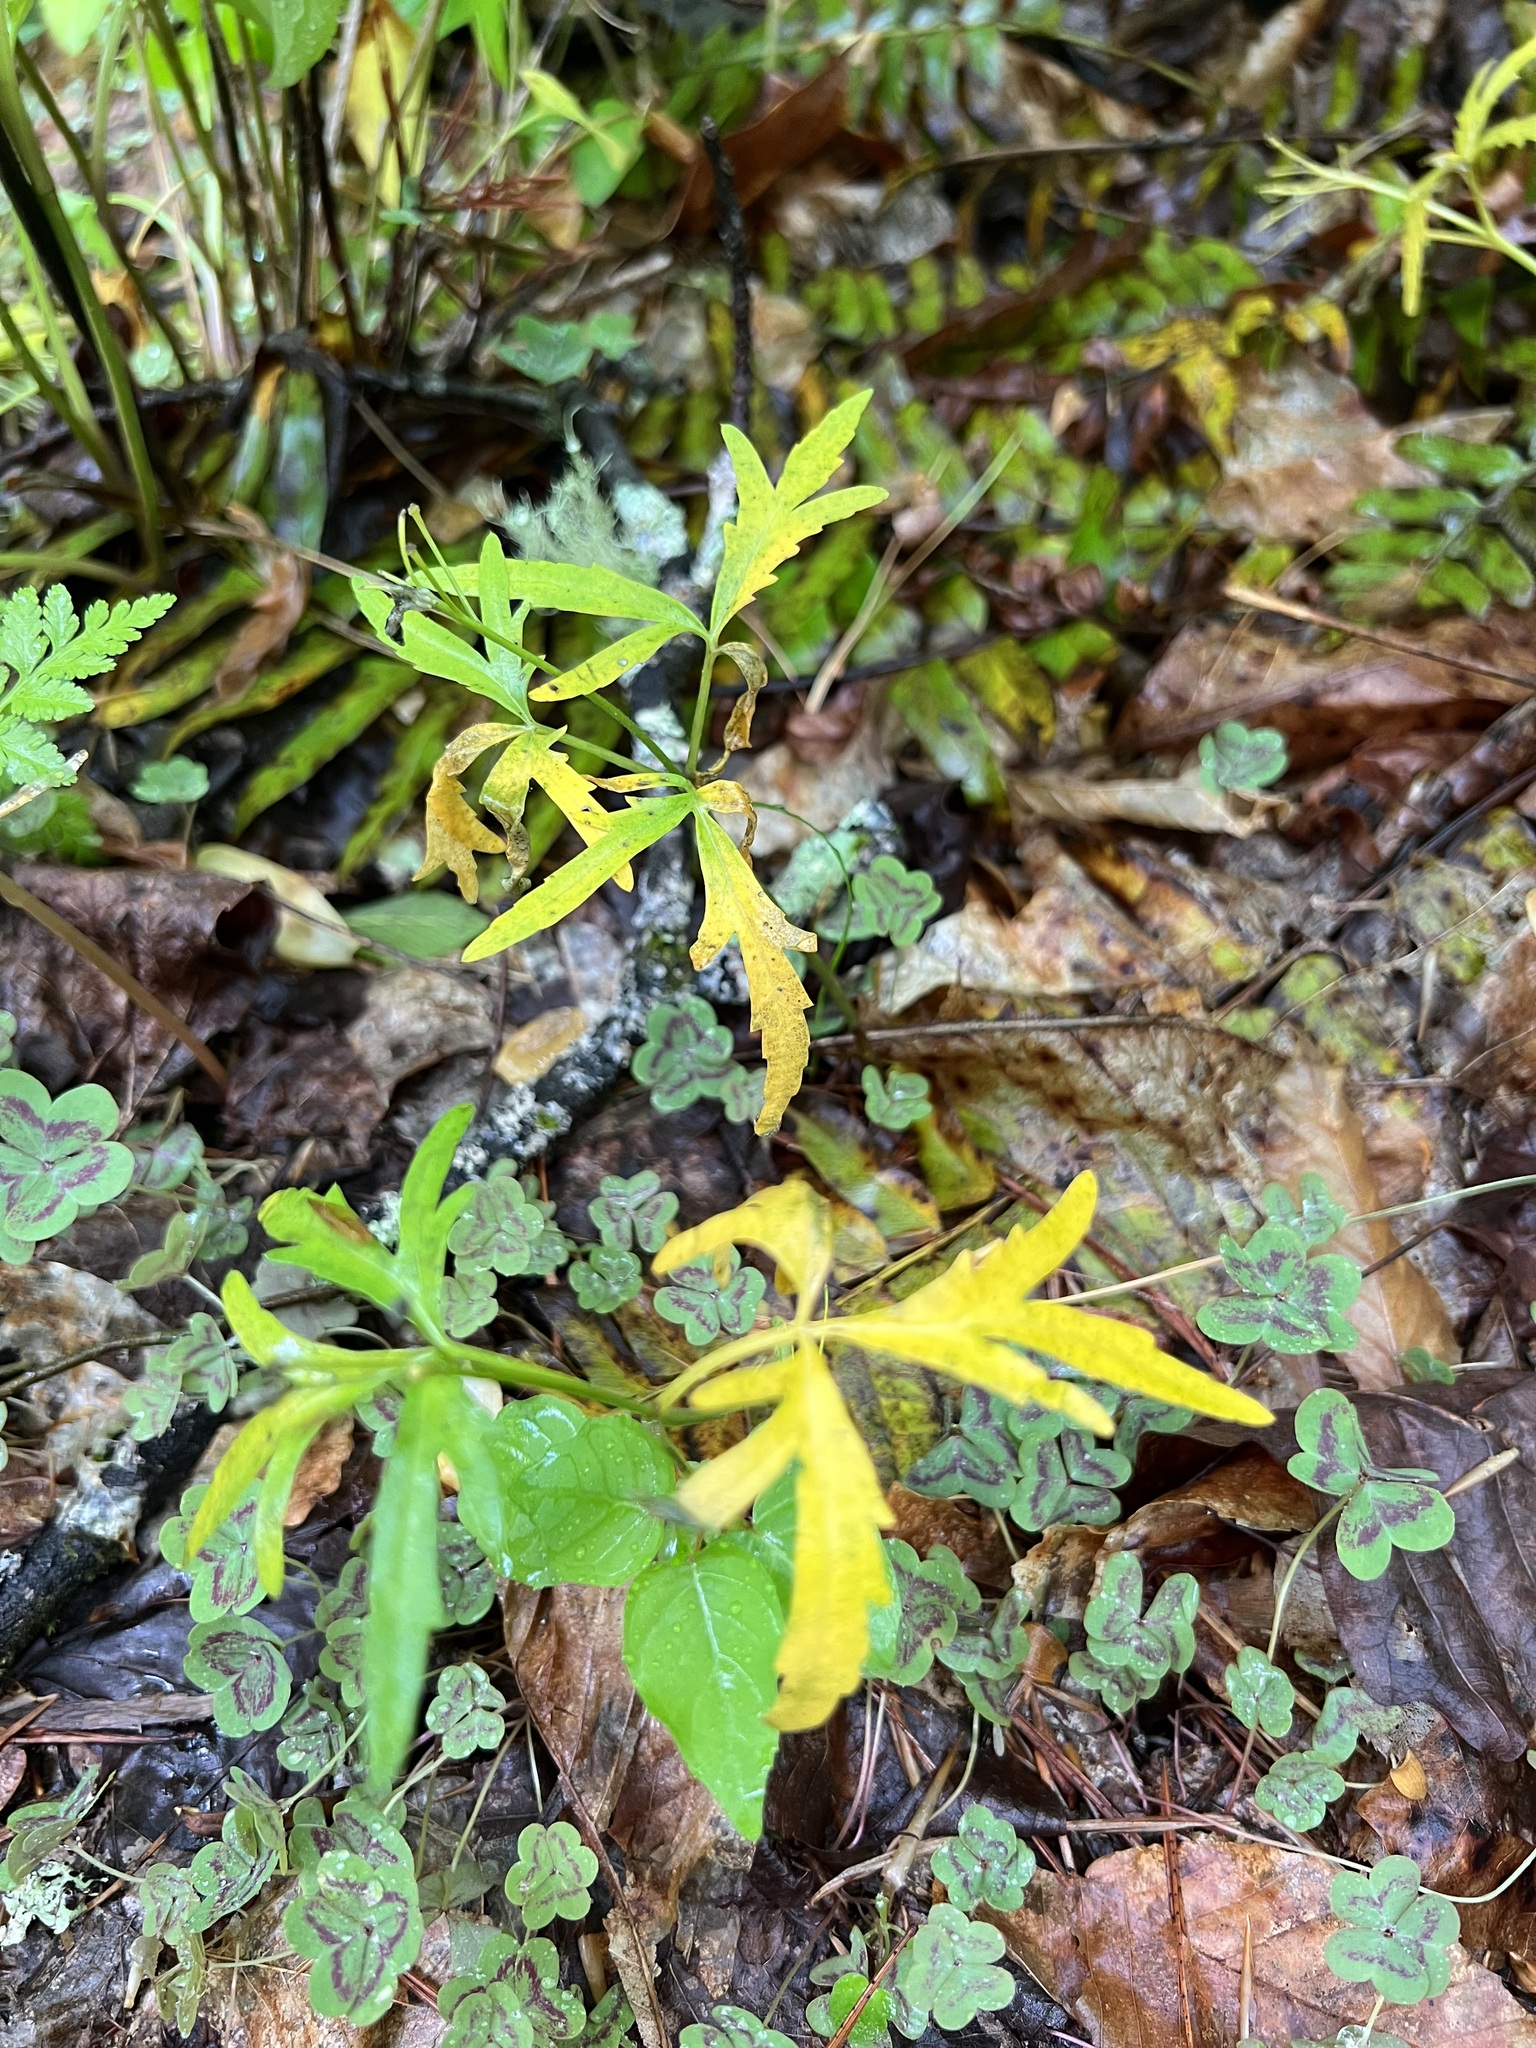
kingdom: Plantae
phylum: Tracheophyta
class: Magnoliopsida
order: Brassicales
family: Brassicaceae
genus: Cardamine
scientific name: Cardamine concatenata
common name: Cut-leaf toothcup
